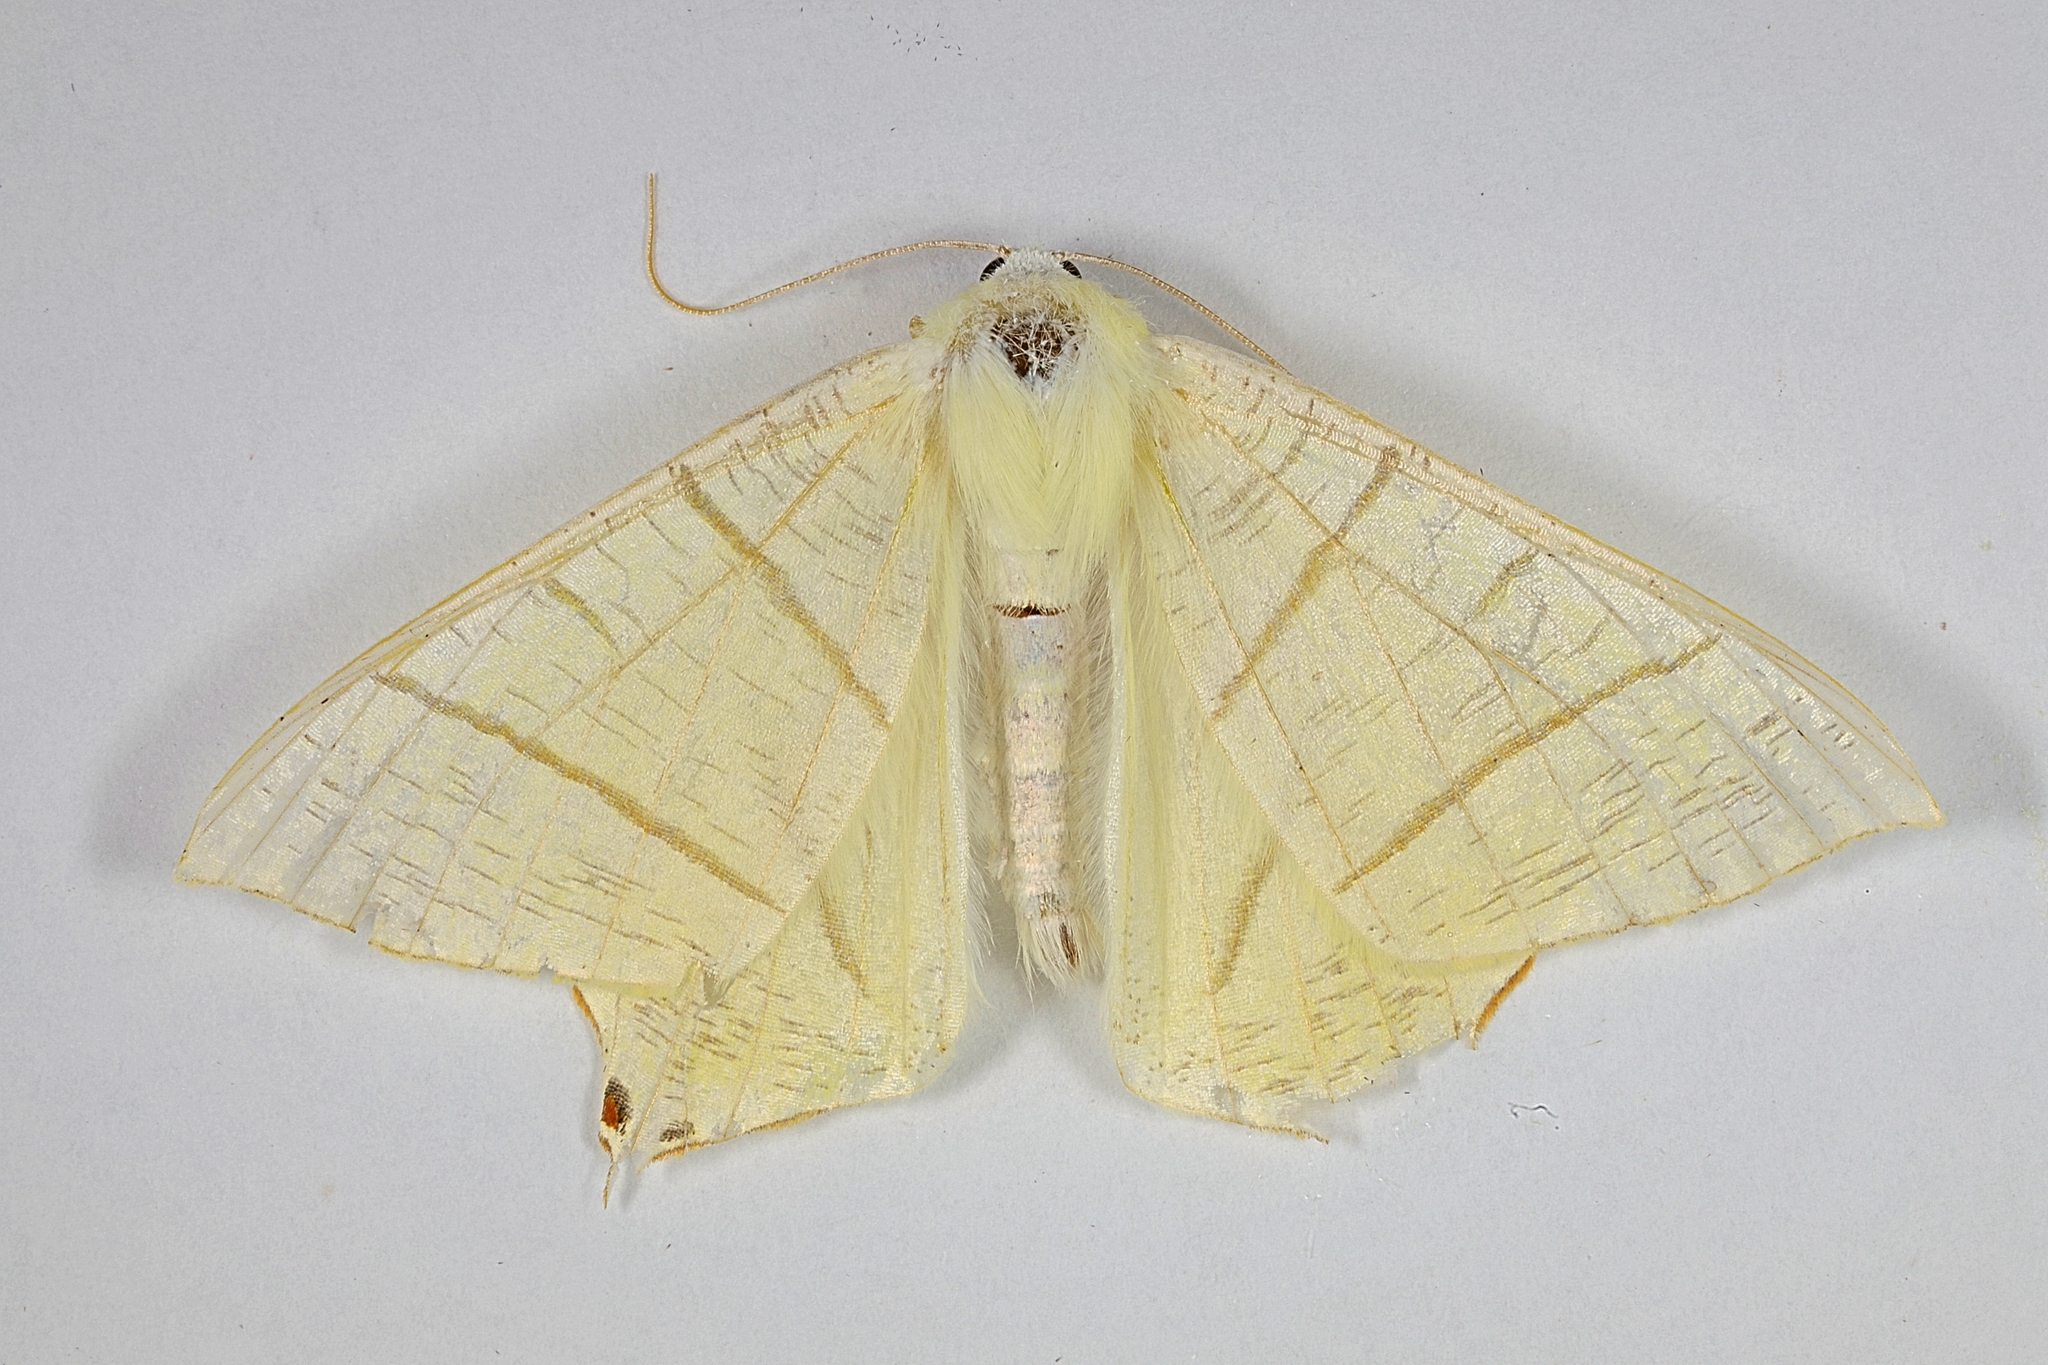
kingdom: Animalia
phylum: Arthropoda
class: Insecta
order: Lepidoptera
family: Geometridae
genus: Ourapteryx
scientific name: Ourapteryx sambucaria
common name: Swallow-tailed moth
